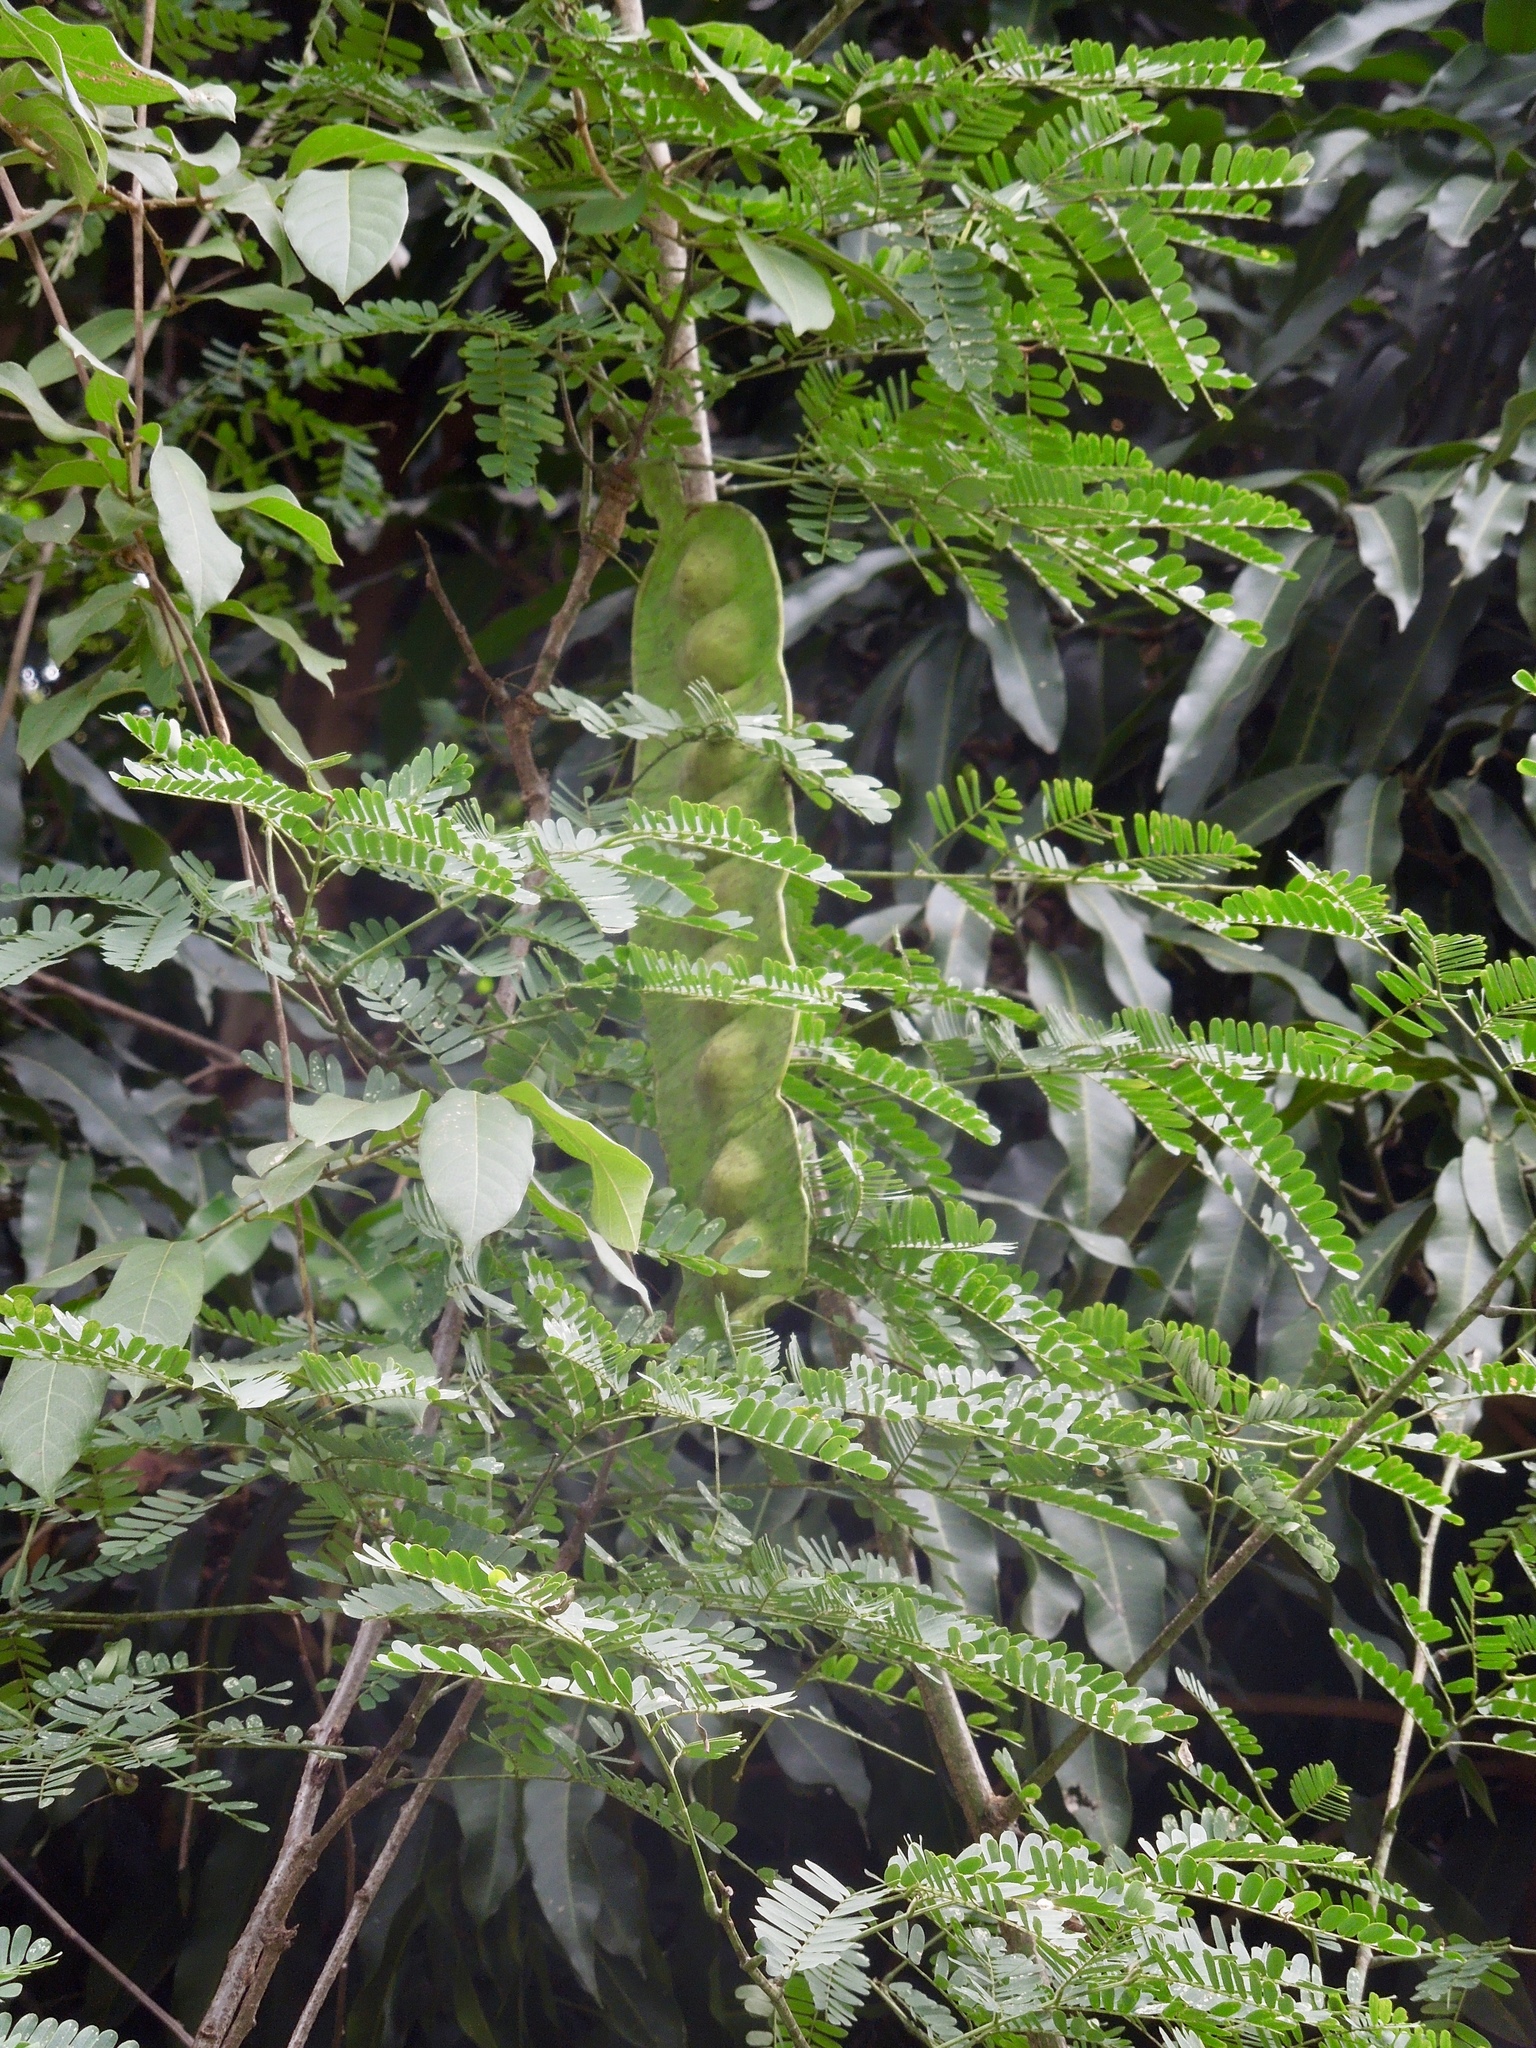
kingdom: Plantae
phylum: Tracheophyta
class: Magnoliopsida
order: Fabales
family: Fabaceae
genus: Entada
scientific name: Entada chrysostachys
